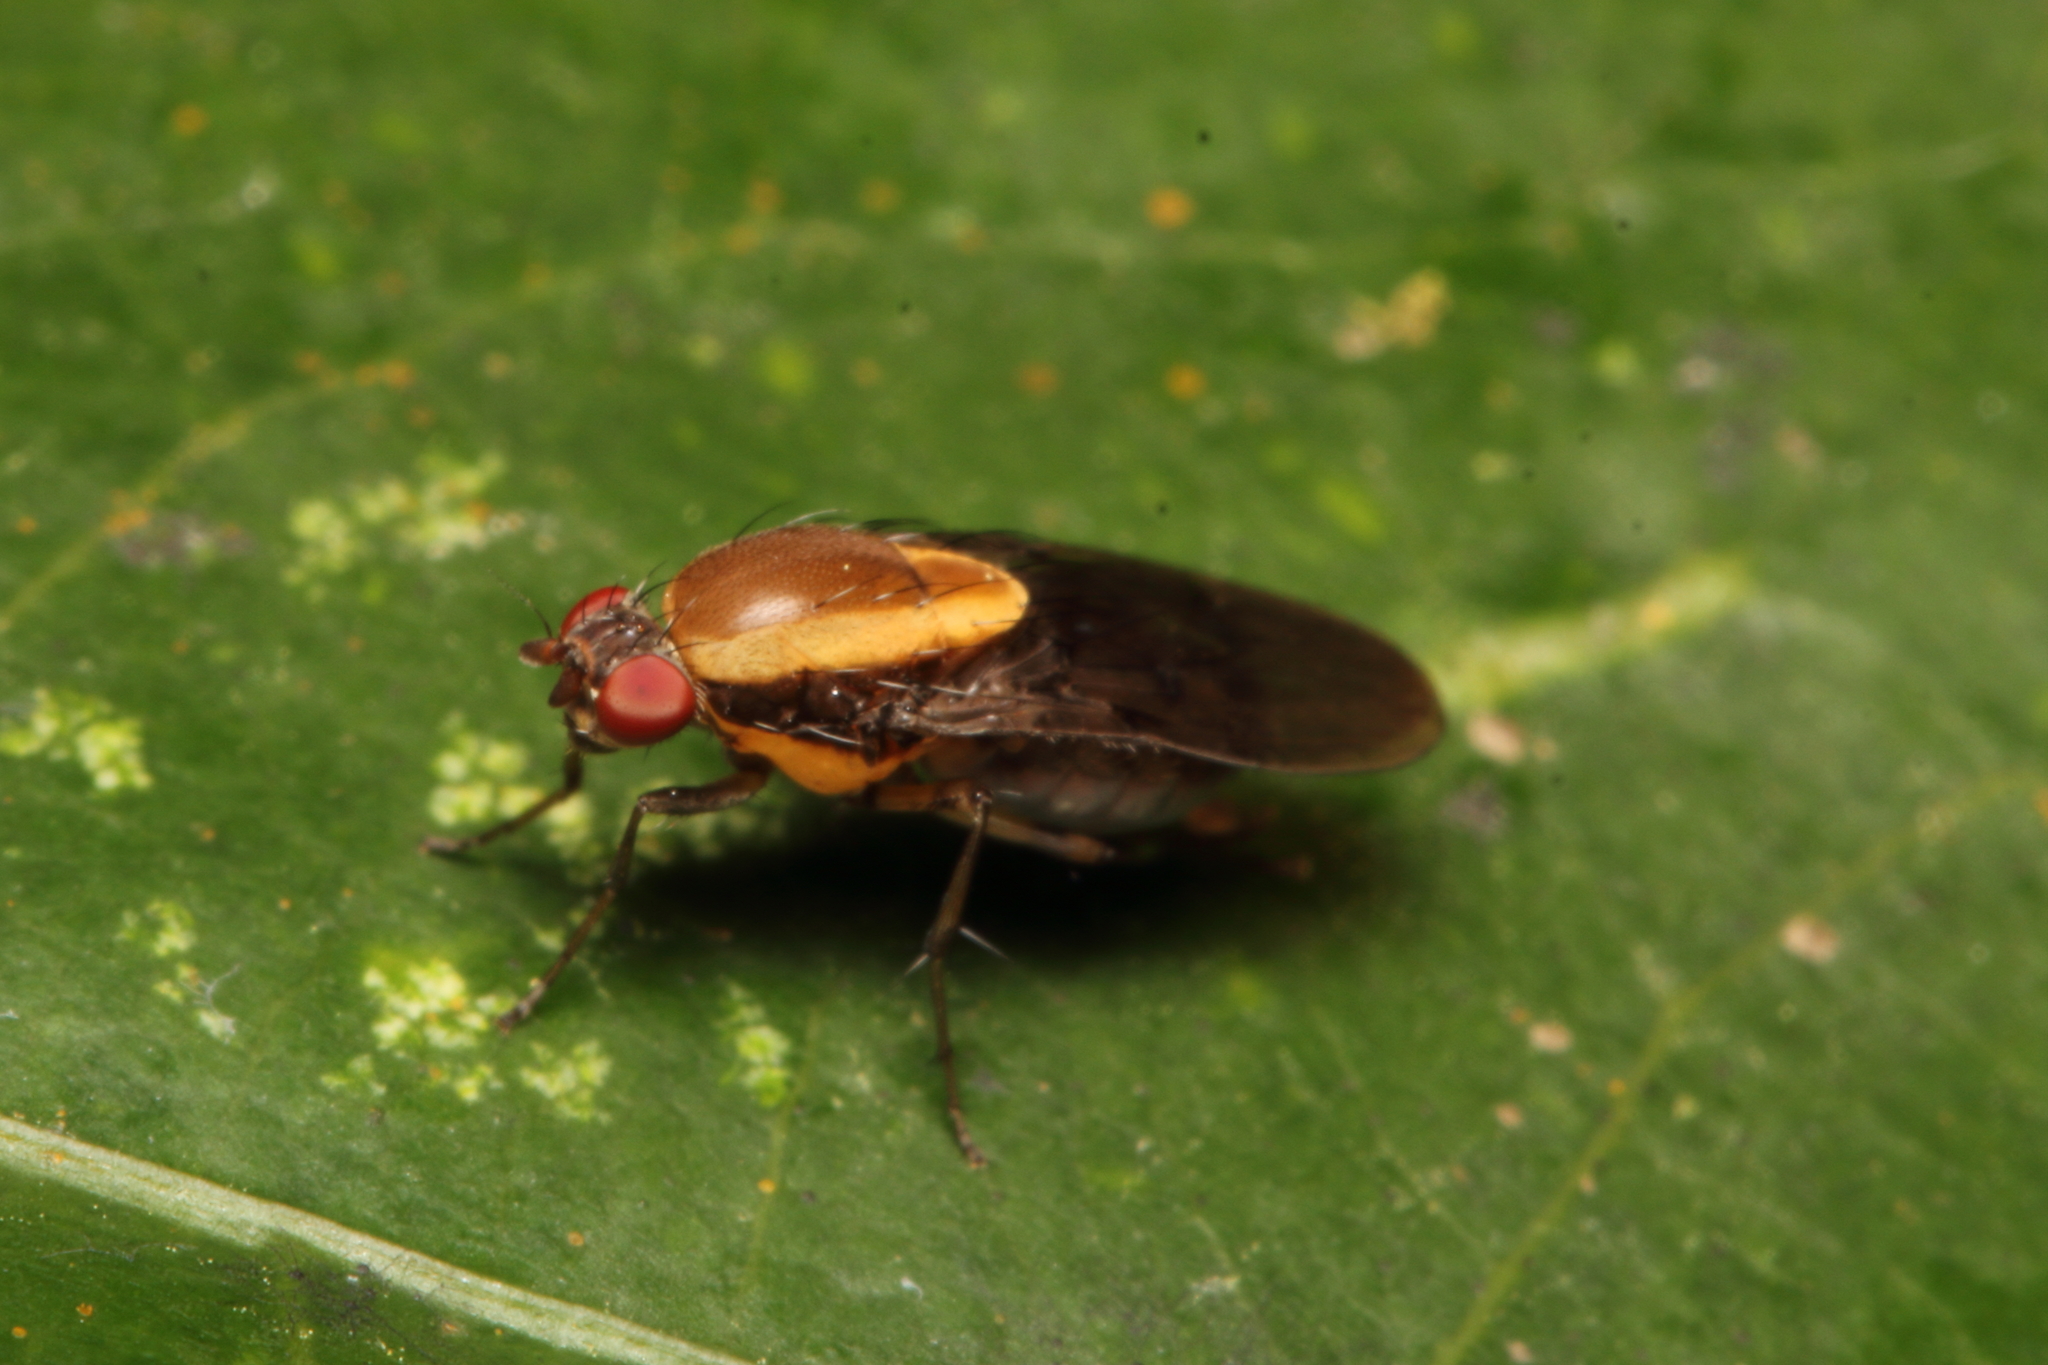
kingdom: Animalia
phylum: Arthropoda
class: Insecta
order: Diptera
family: Heleomyzidae
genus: Allophylopsis
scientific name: Allophylopsis scutellata
